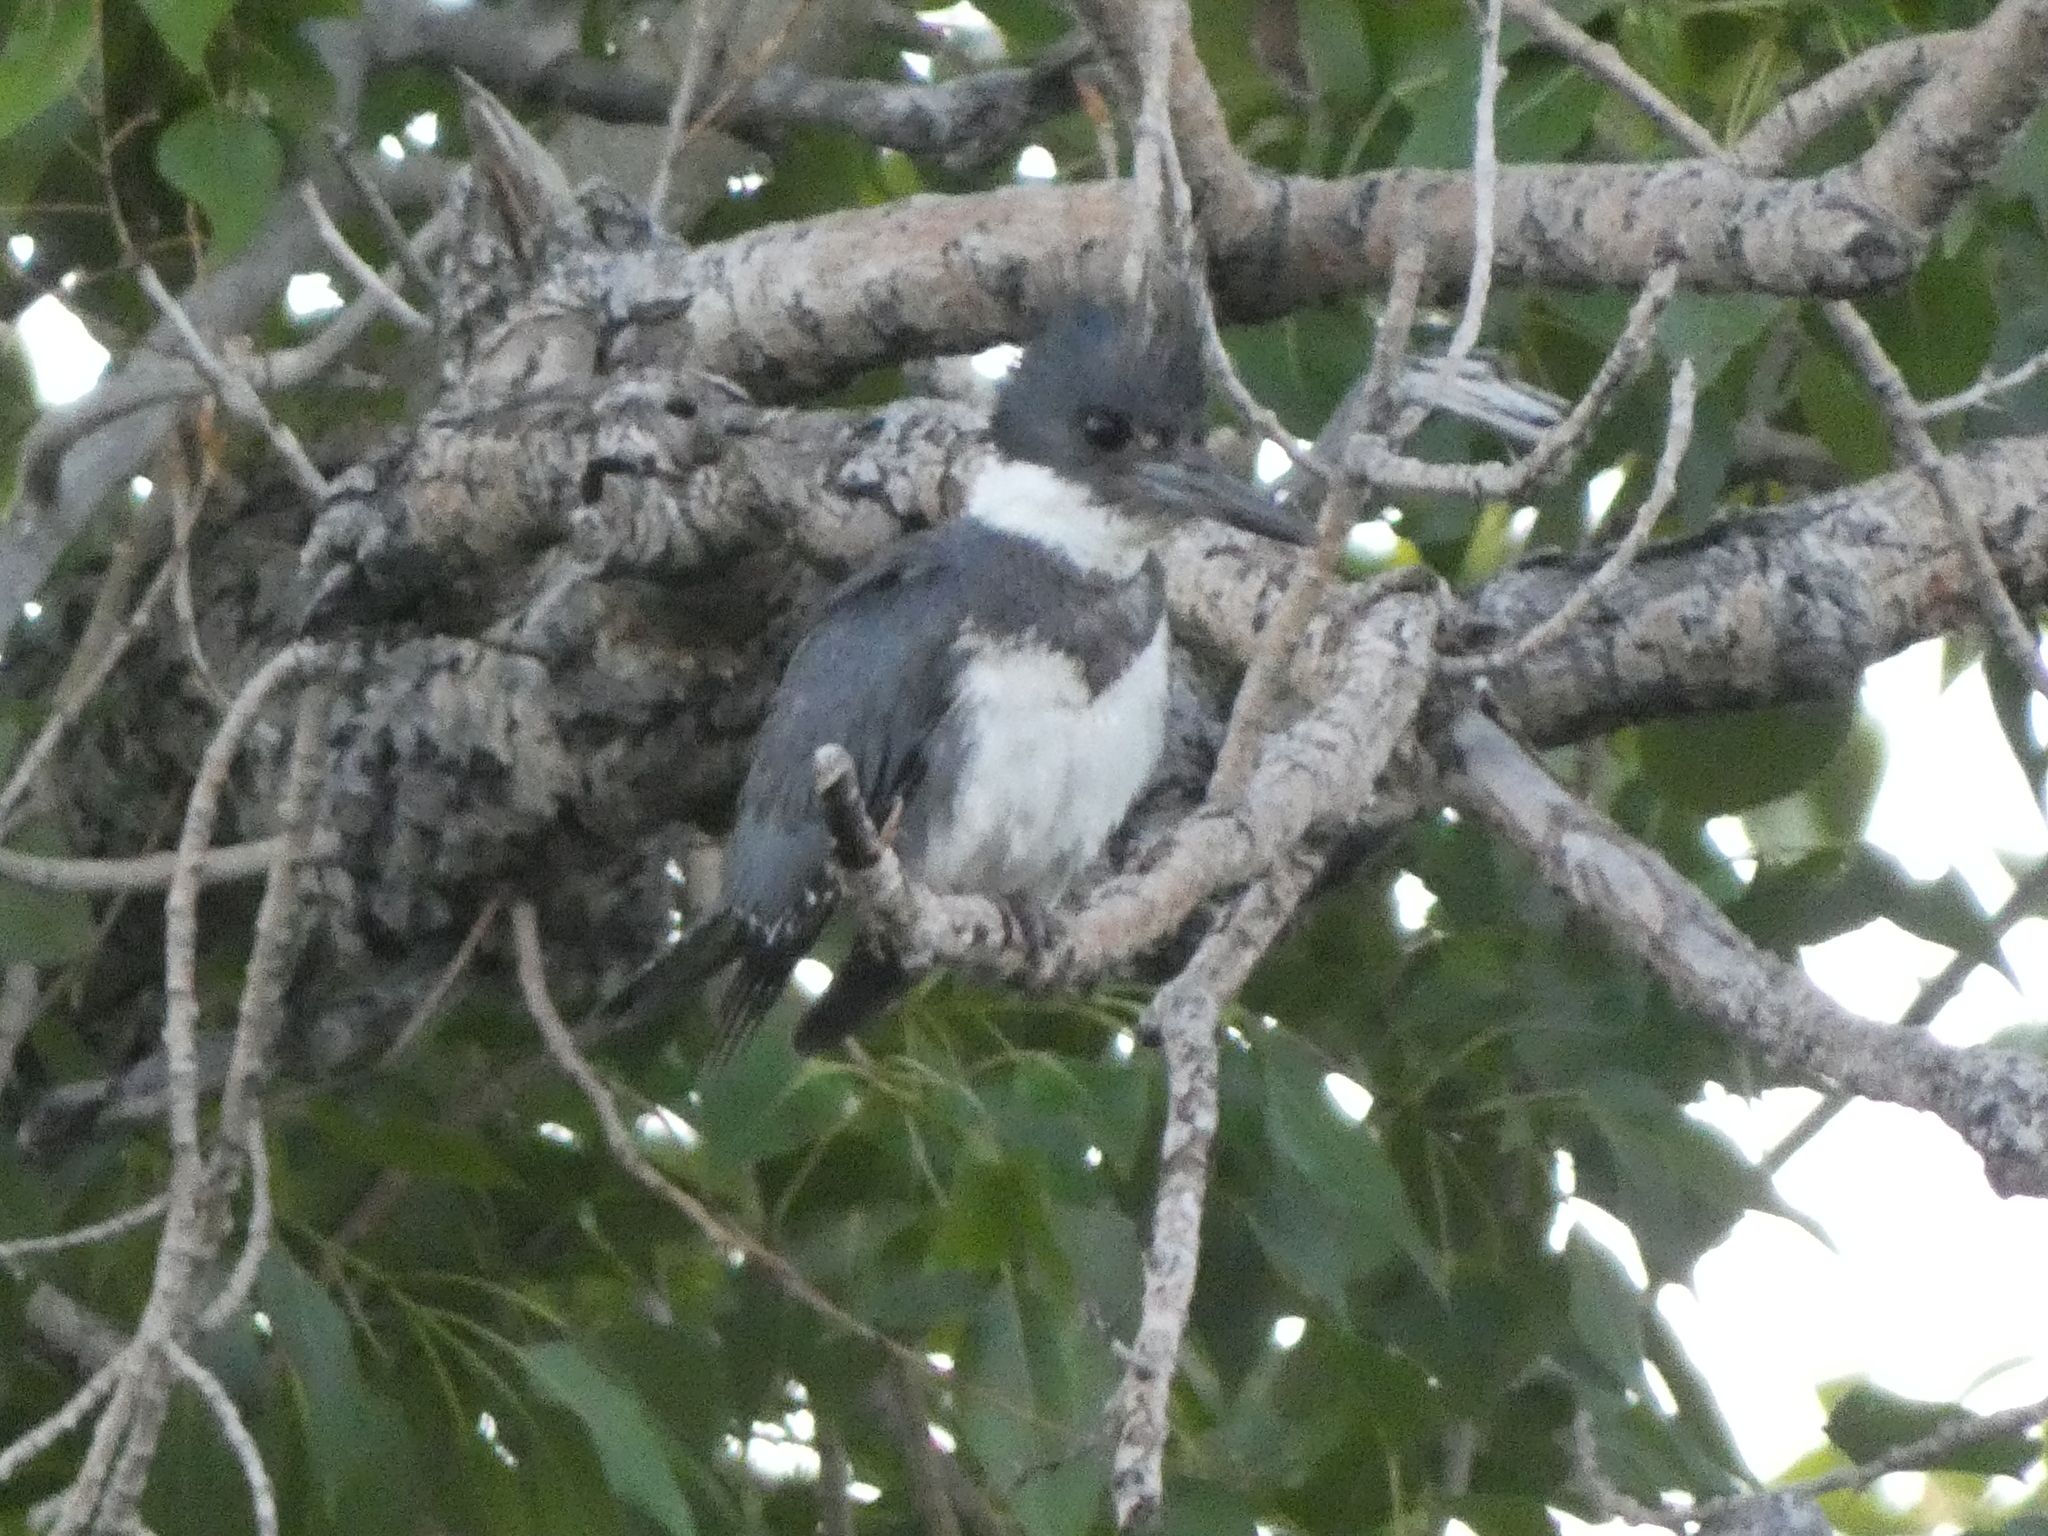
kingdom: Animalia
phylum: Chordata
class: Aves
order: Coraciiformes
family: Alcedinidae
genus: Megaceryle
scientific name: Megaceryle alcyon
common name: Belted kingfisher
